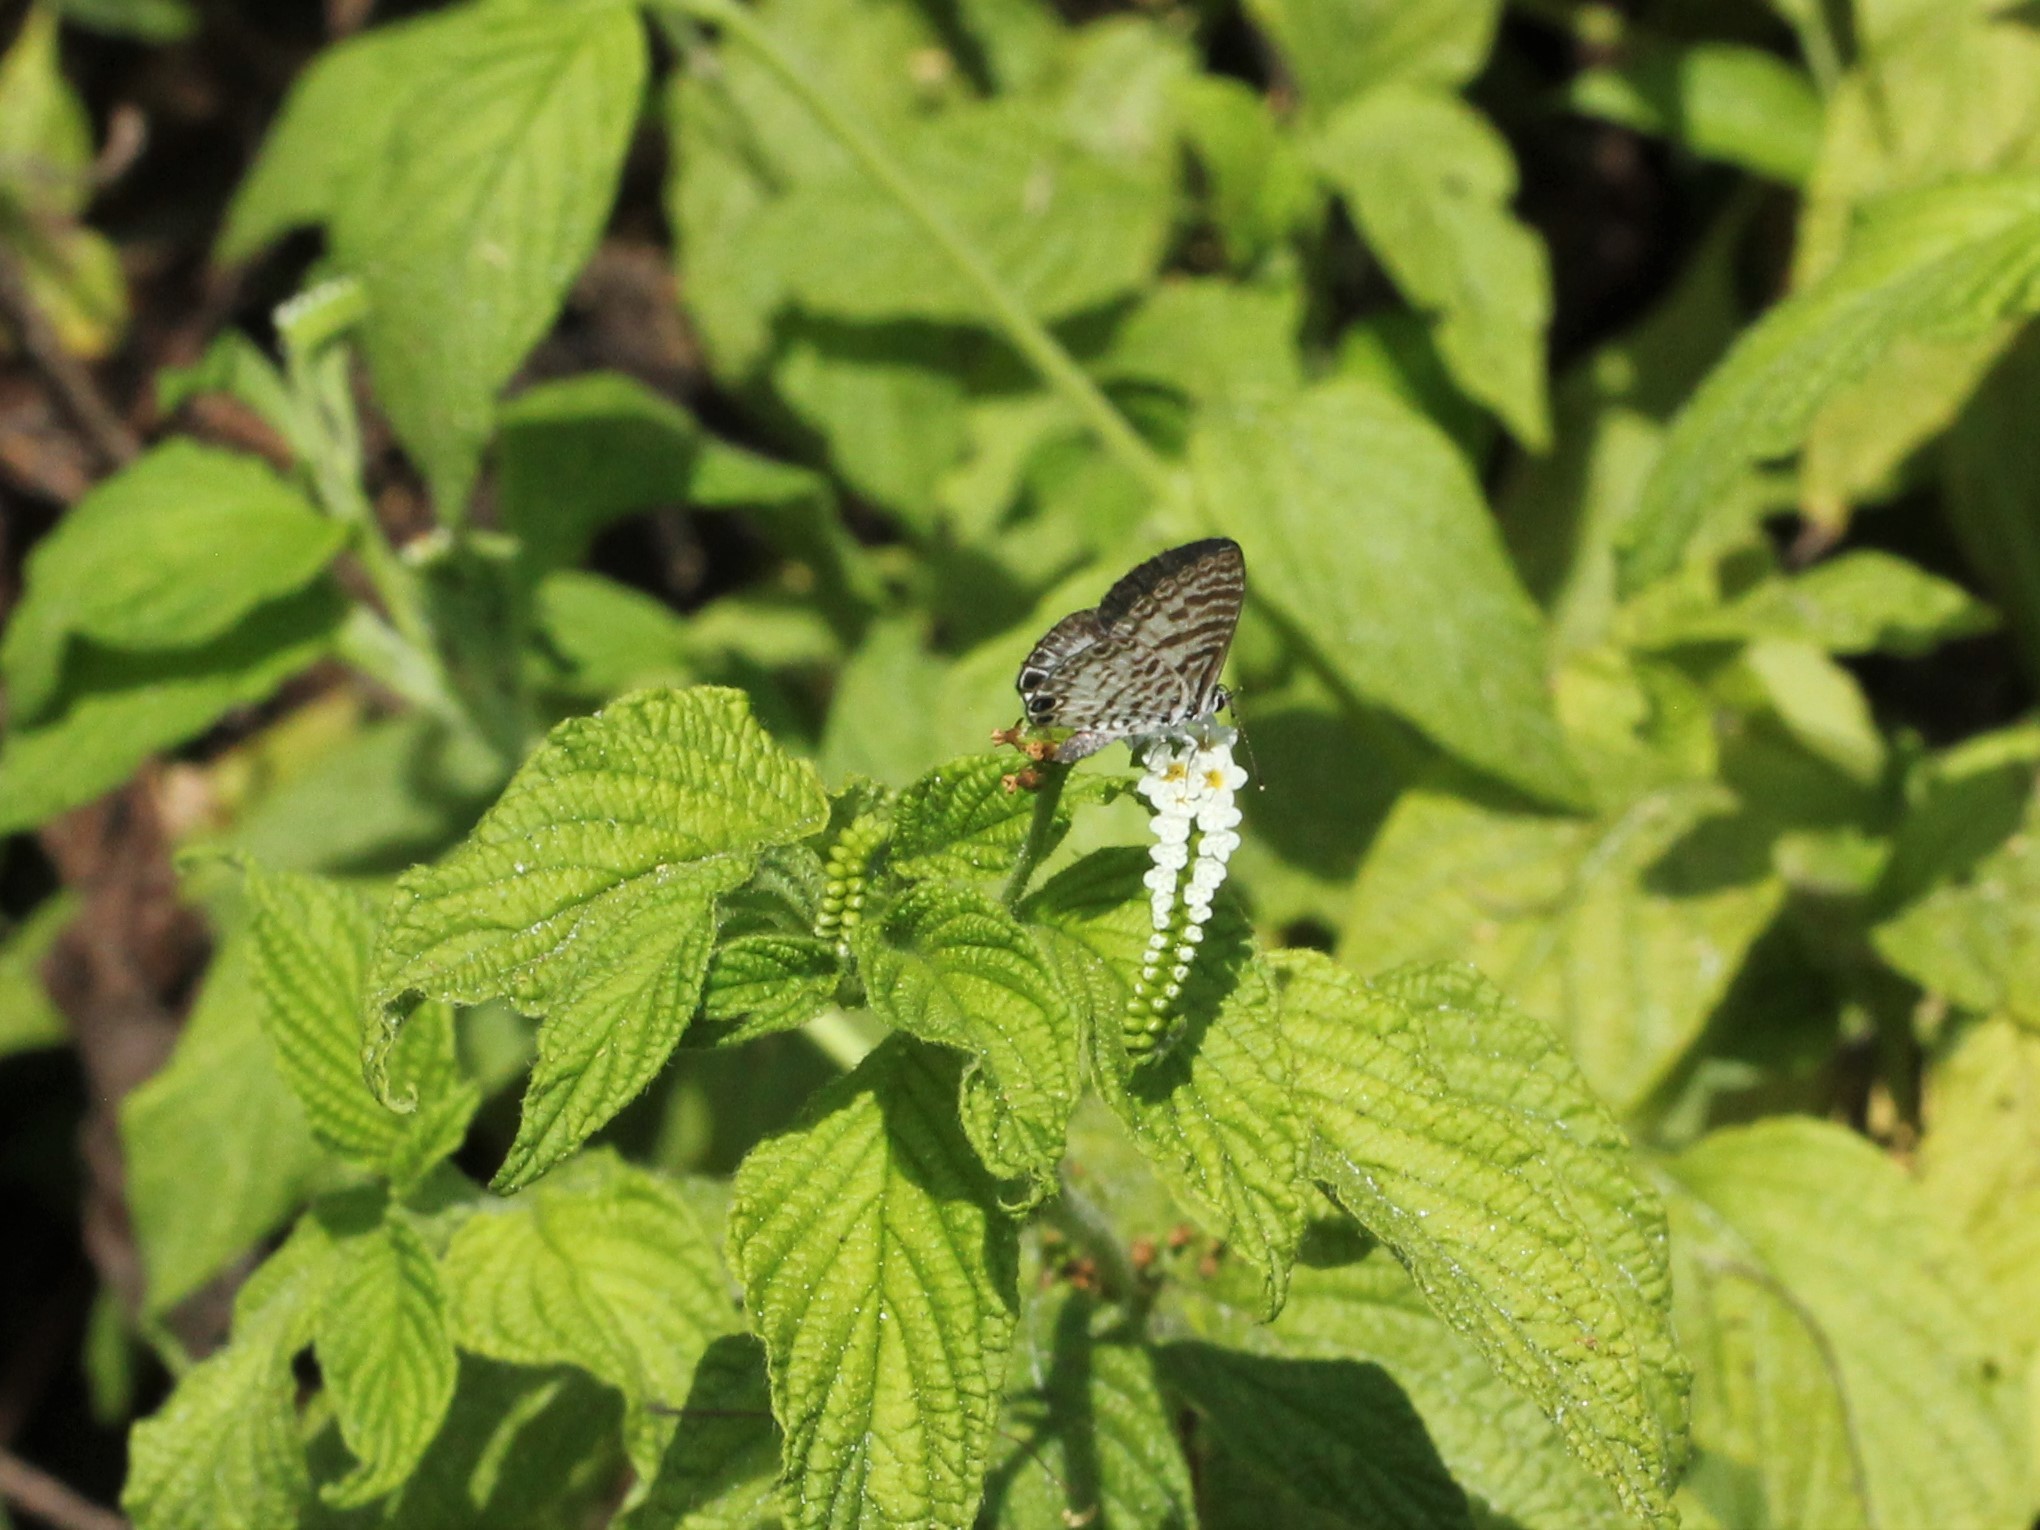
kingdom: Animalia
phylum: Arthropoda
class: Insecta
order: Lepidoptera
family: Lycaenidae
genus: Leptotes
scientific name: Leptotes cassius
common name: Cassius blue
